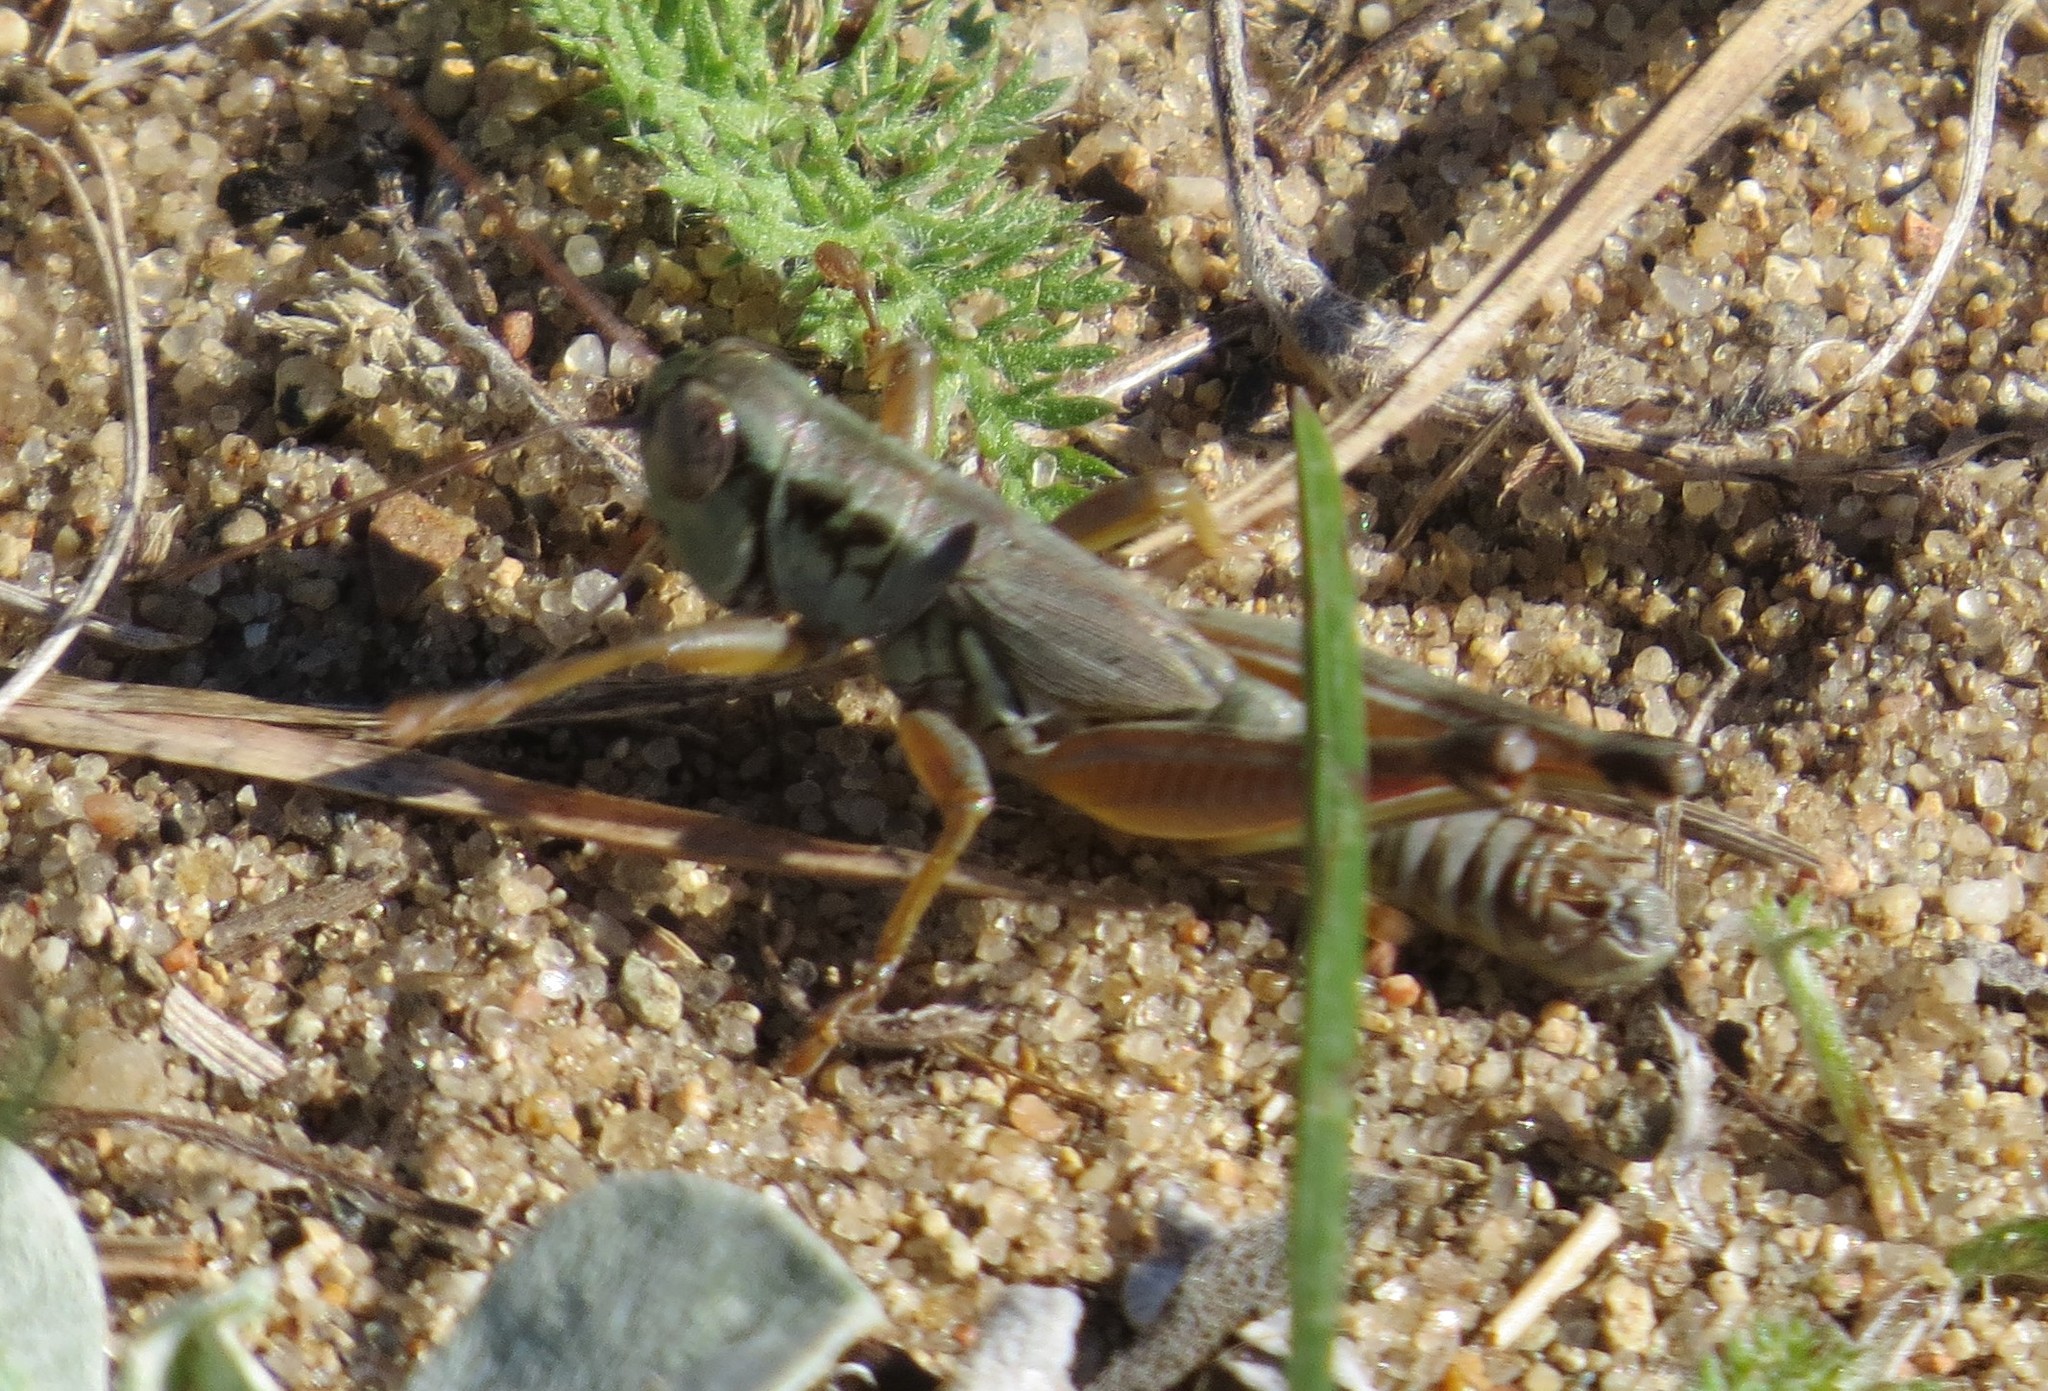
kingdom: Animalia
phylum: Arthropoda
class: Insecta
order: Orthoptera
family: Acrididae
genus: Phoetaliotes
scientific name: Phoetaliotes nebrascensis
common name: Large-headed grasshopper
